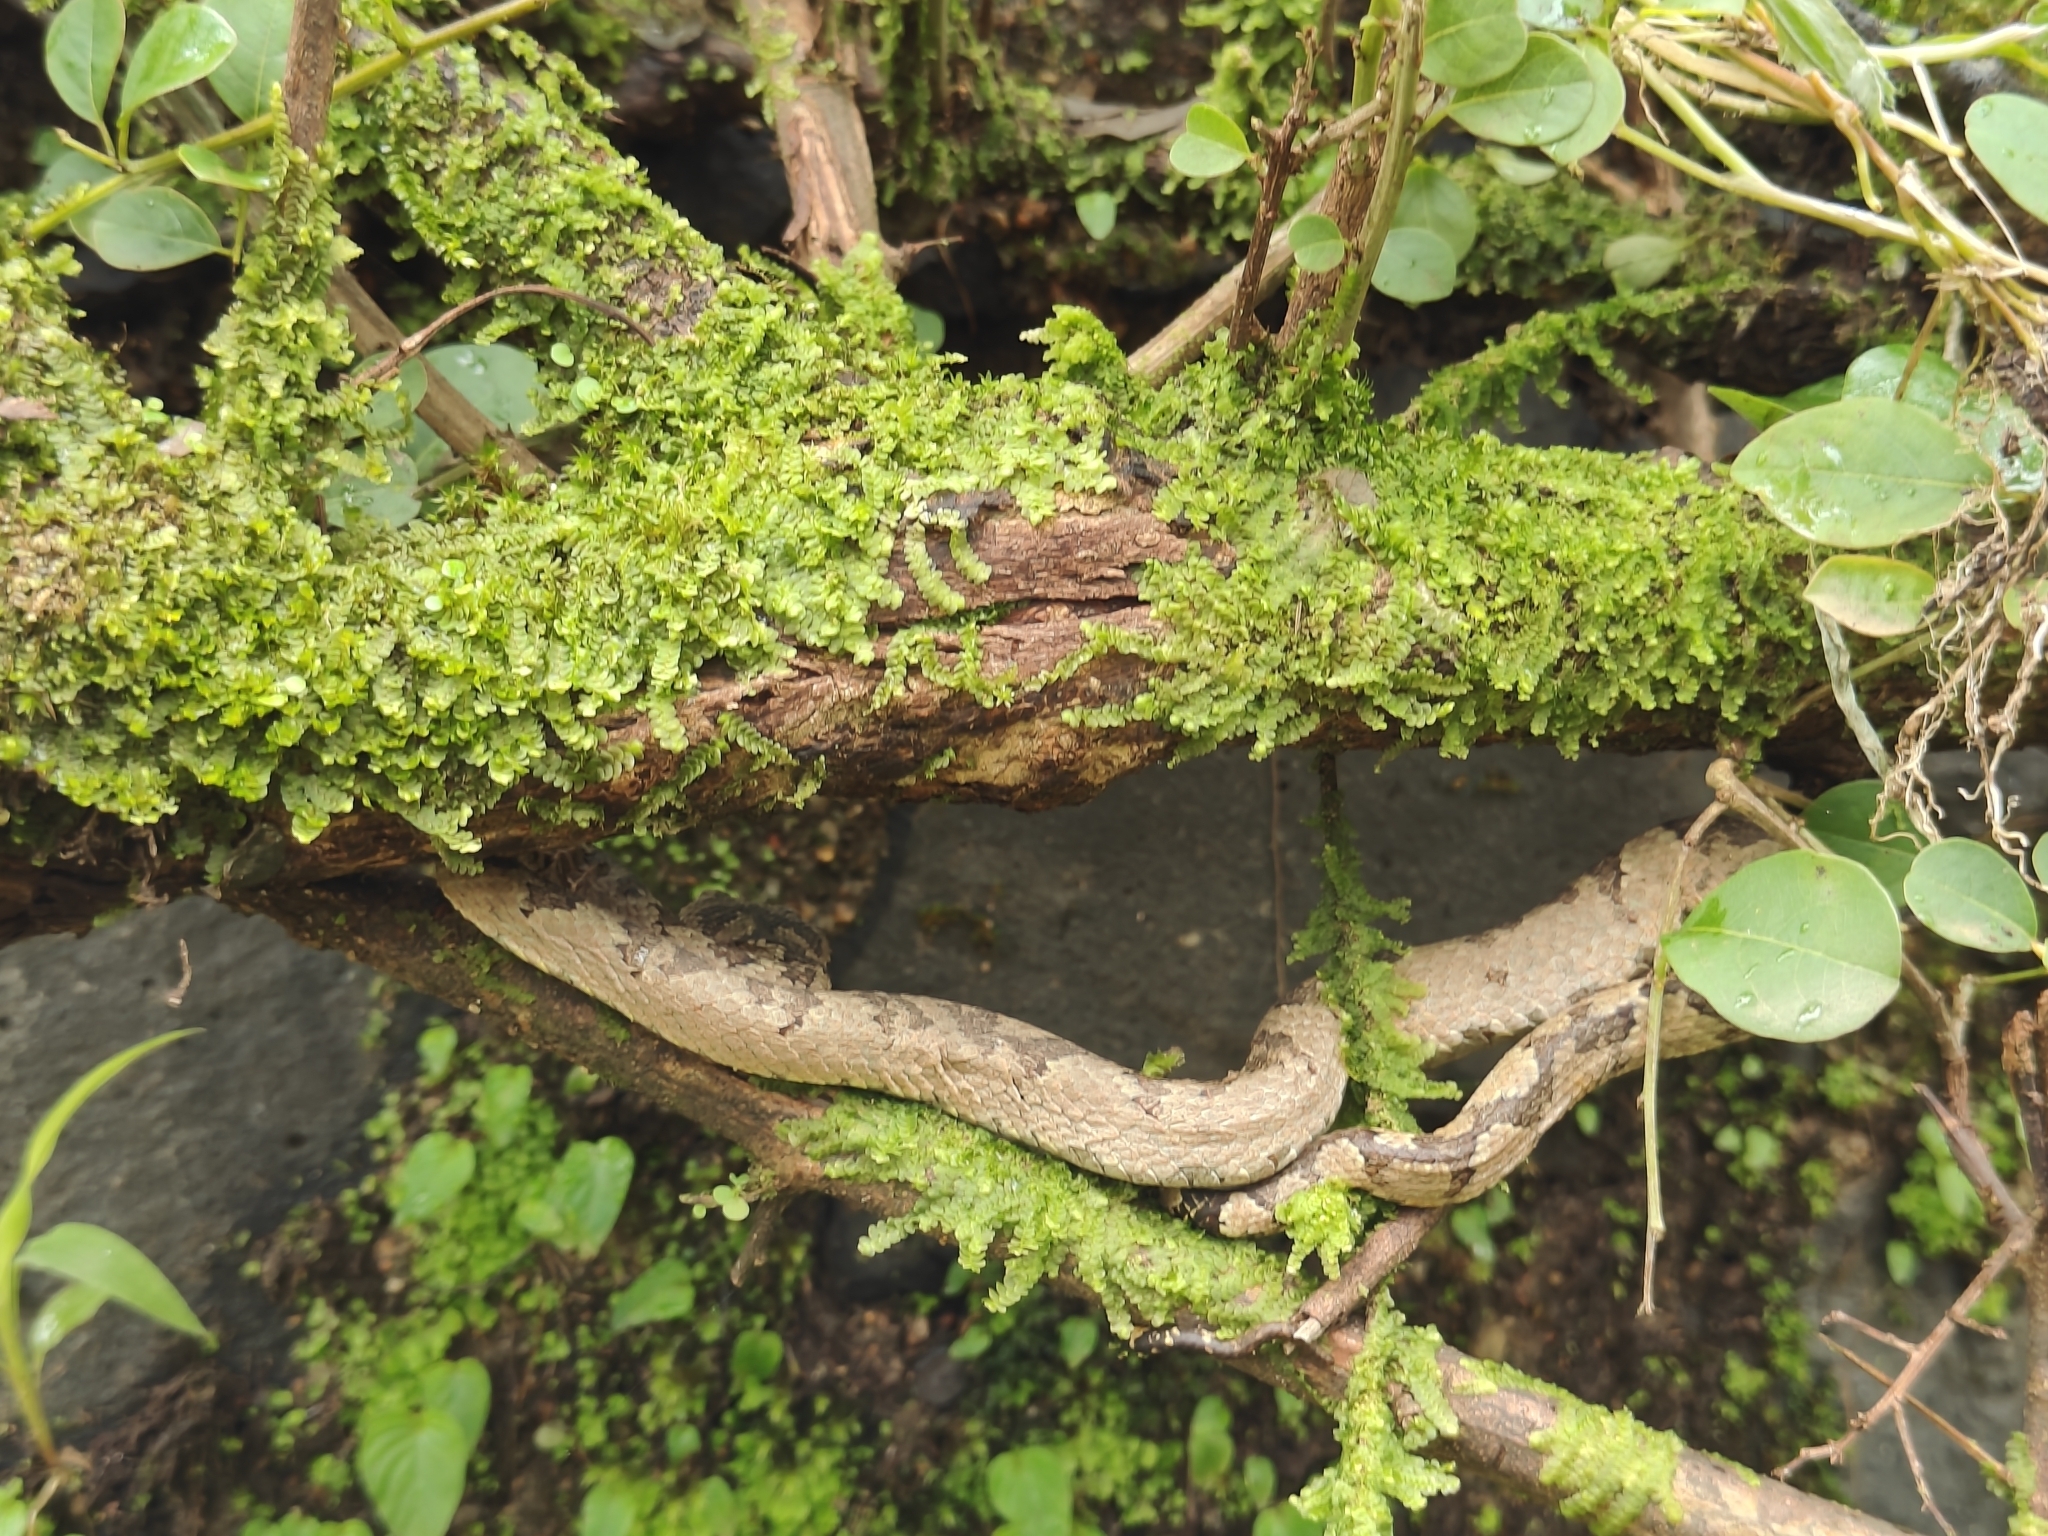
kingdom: Animalia
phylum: Chordata
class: Squamata
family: Viperidae
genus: Craspedocephalus
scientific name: Craspedocephalus malabaricus
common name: Malabarian pit viper
